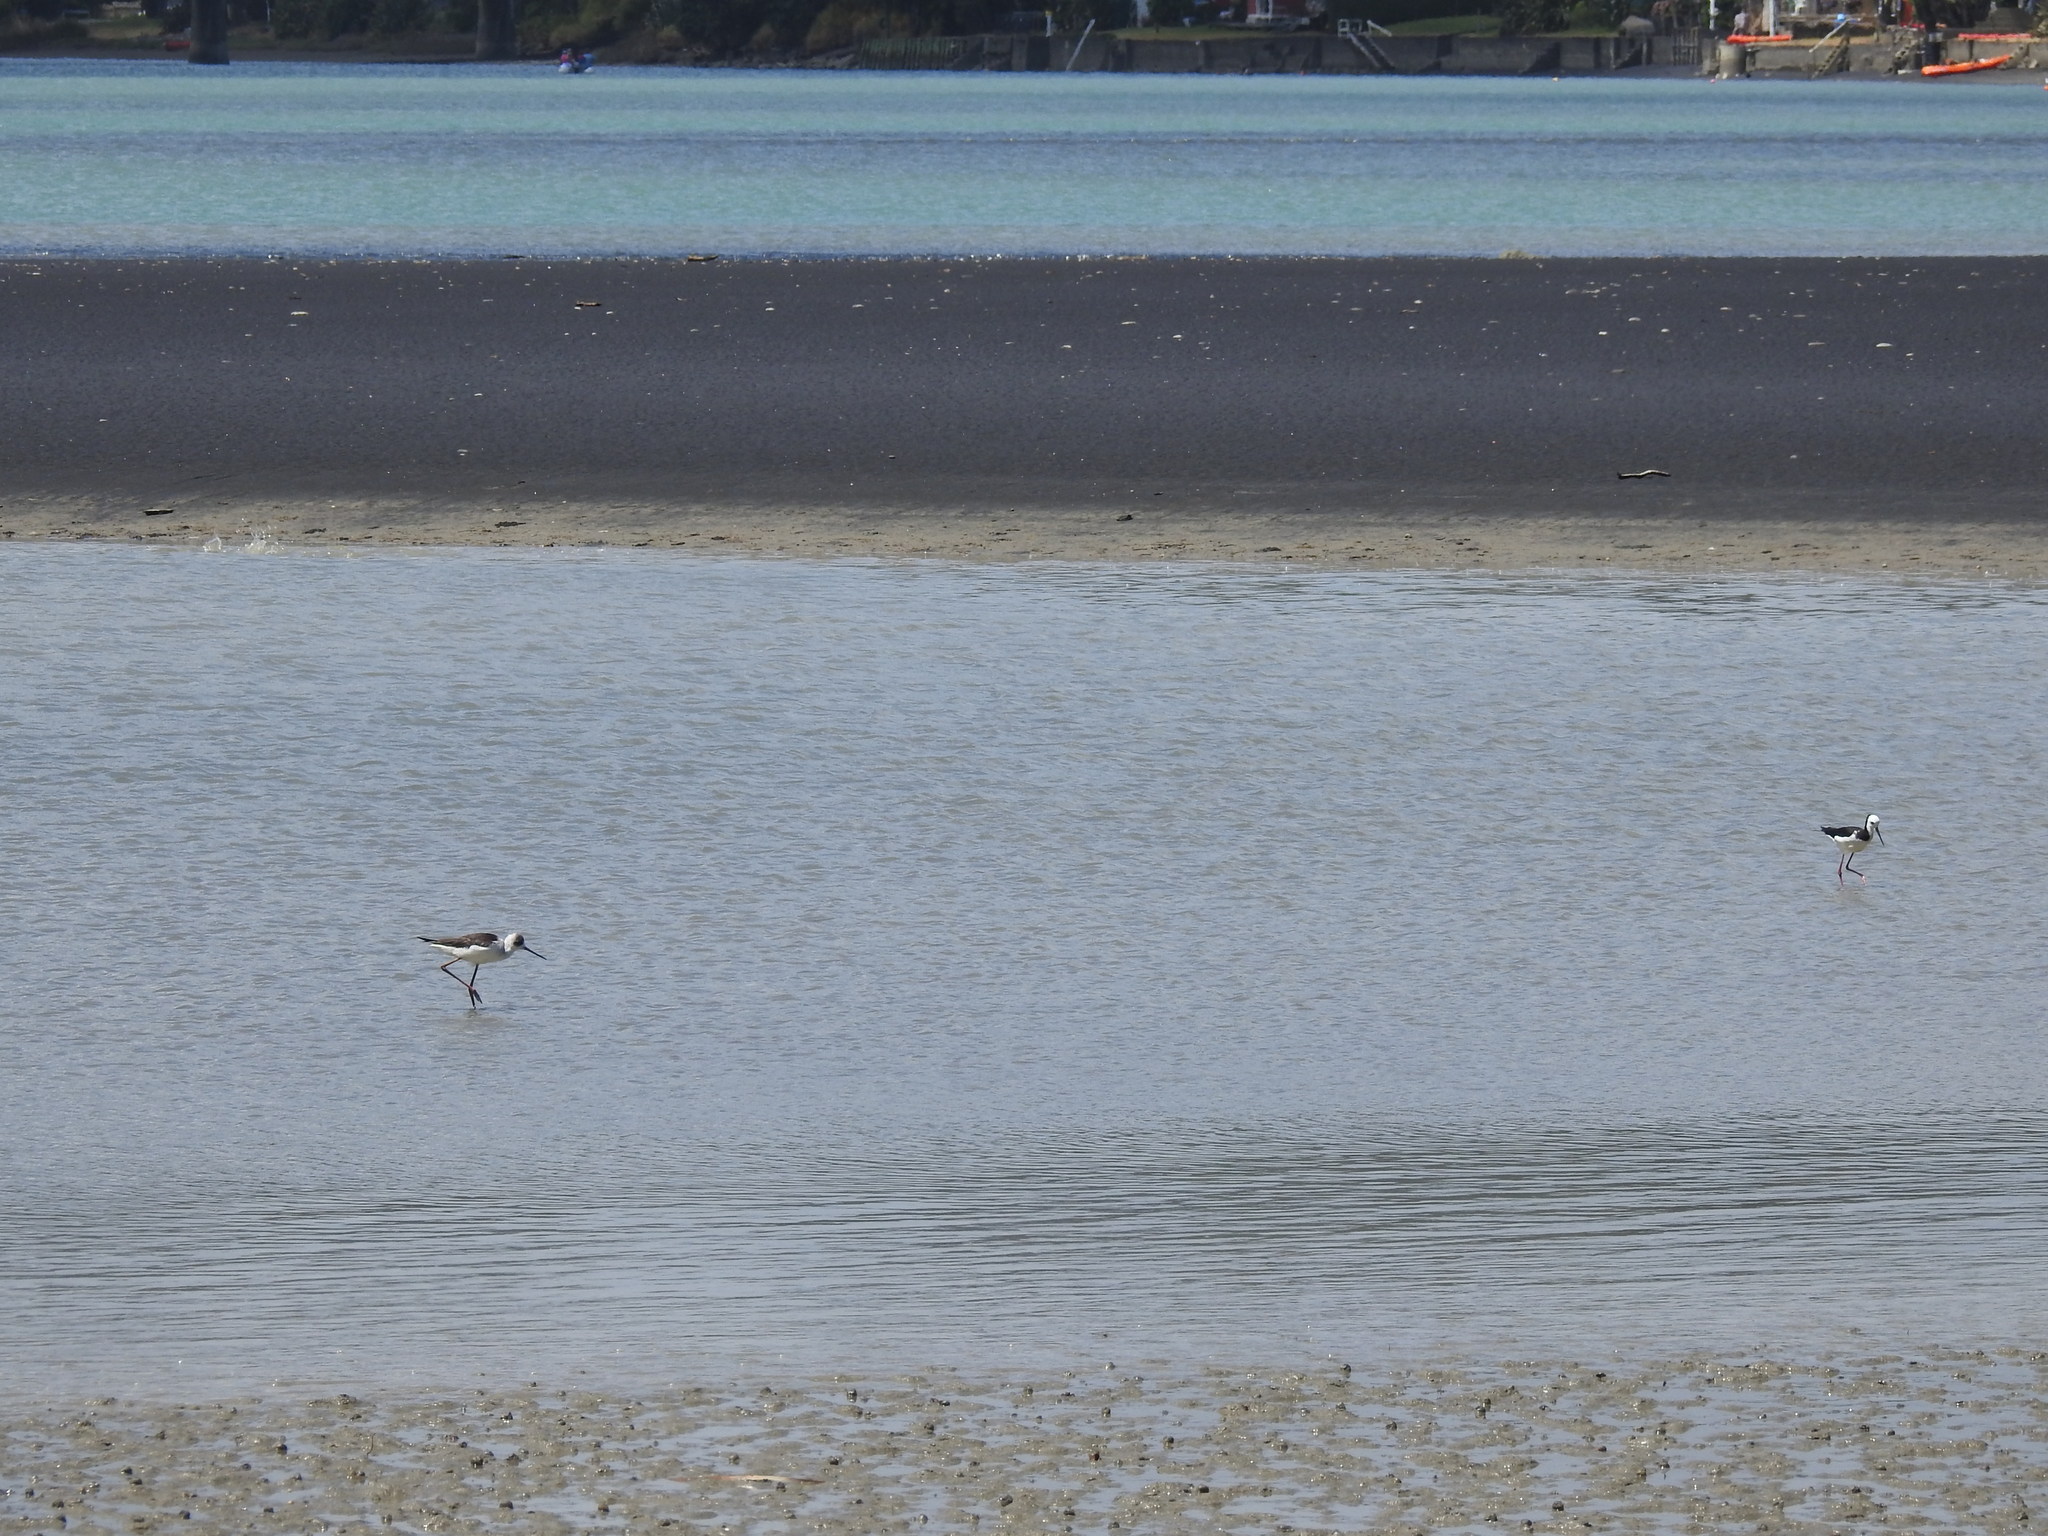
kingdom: Animalia
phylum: Chordata
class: Aves
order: Charadriiformes
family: Recurvirostridae
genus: Himantopus
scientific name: Himantopus leucocephalus
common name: White-headed stilt
